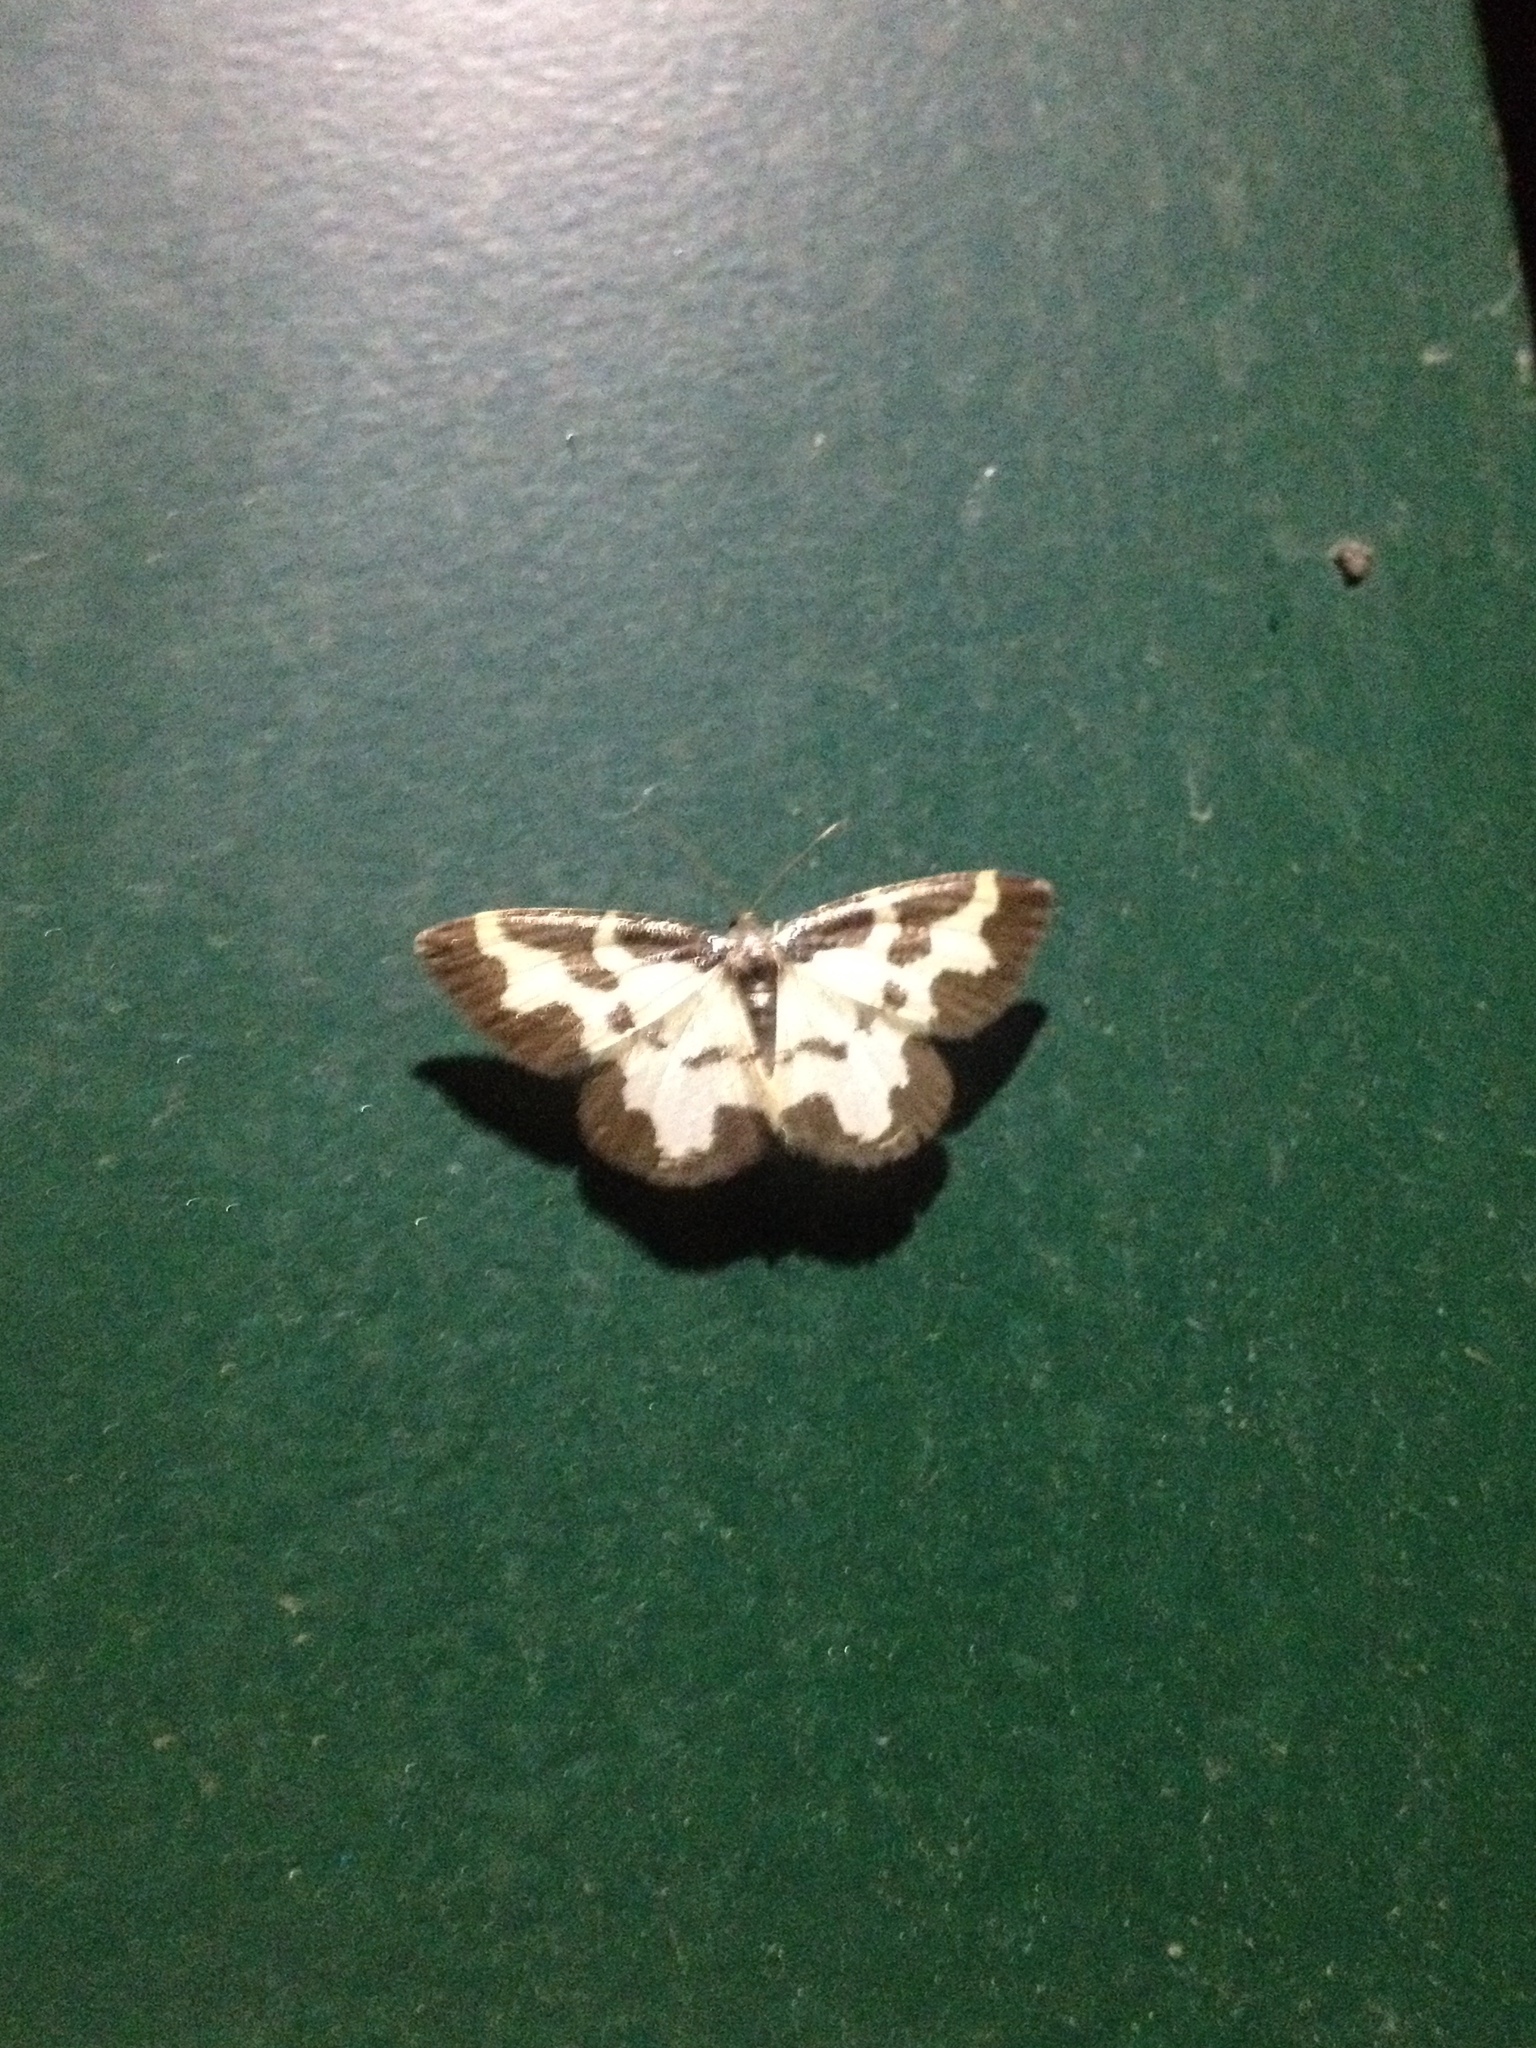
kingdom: Animalia
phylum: Arthropoda
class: Insecta
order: Lepidoptera
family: Geometridae
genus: Lomaspilis
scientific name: Lomaspilis marginata
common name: Clouded border
